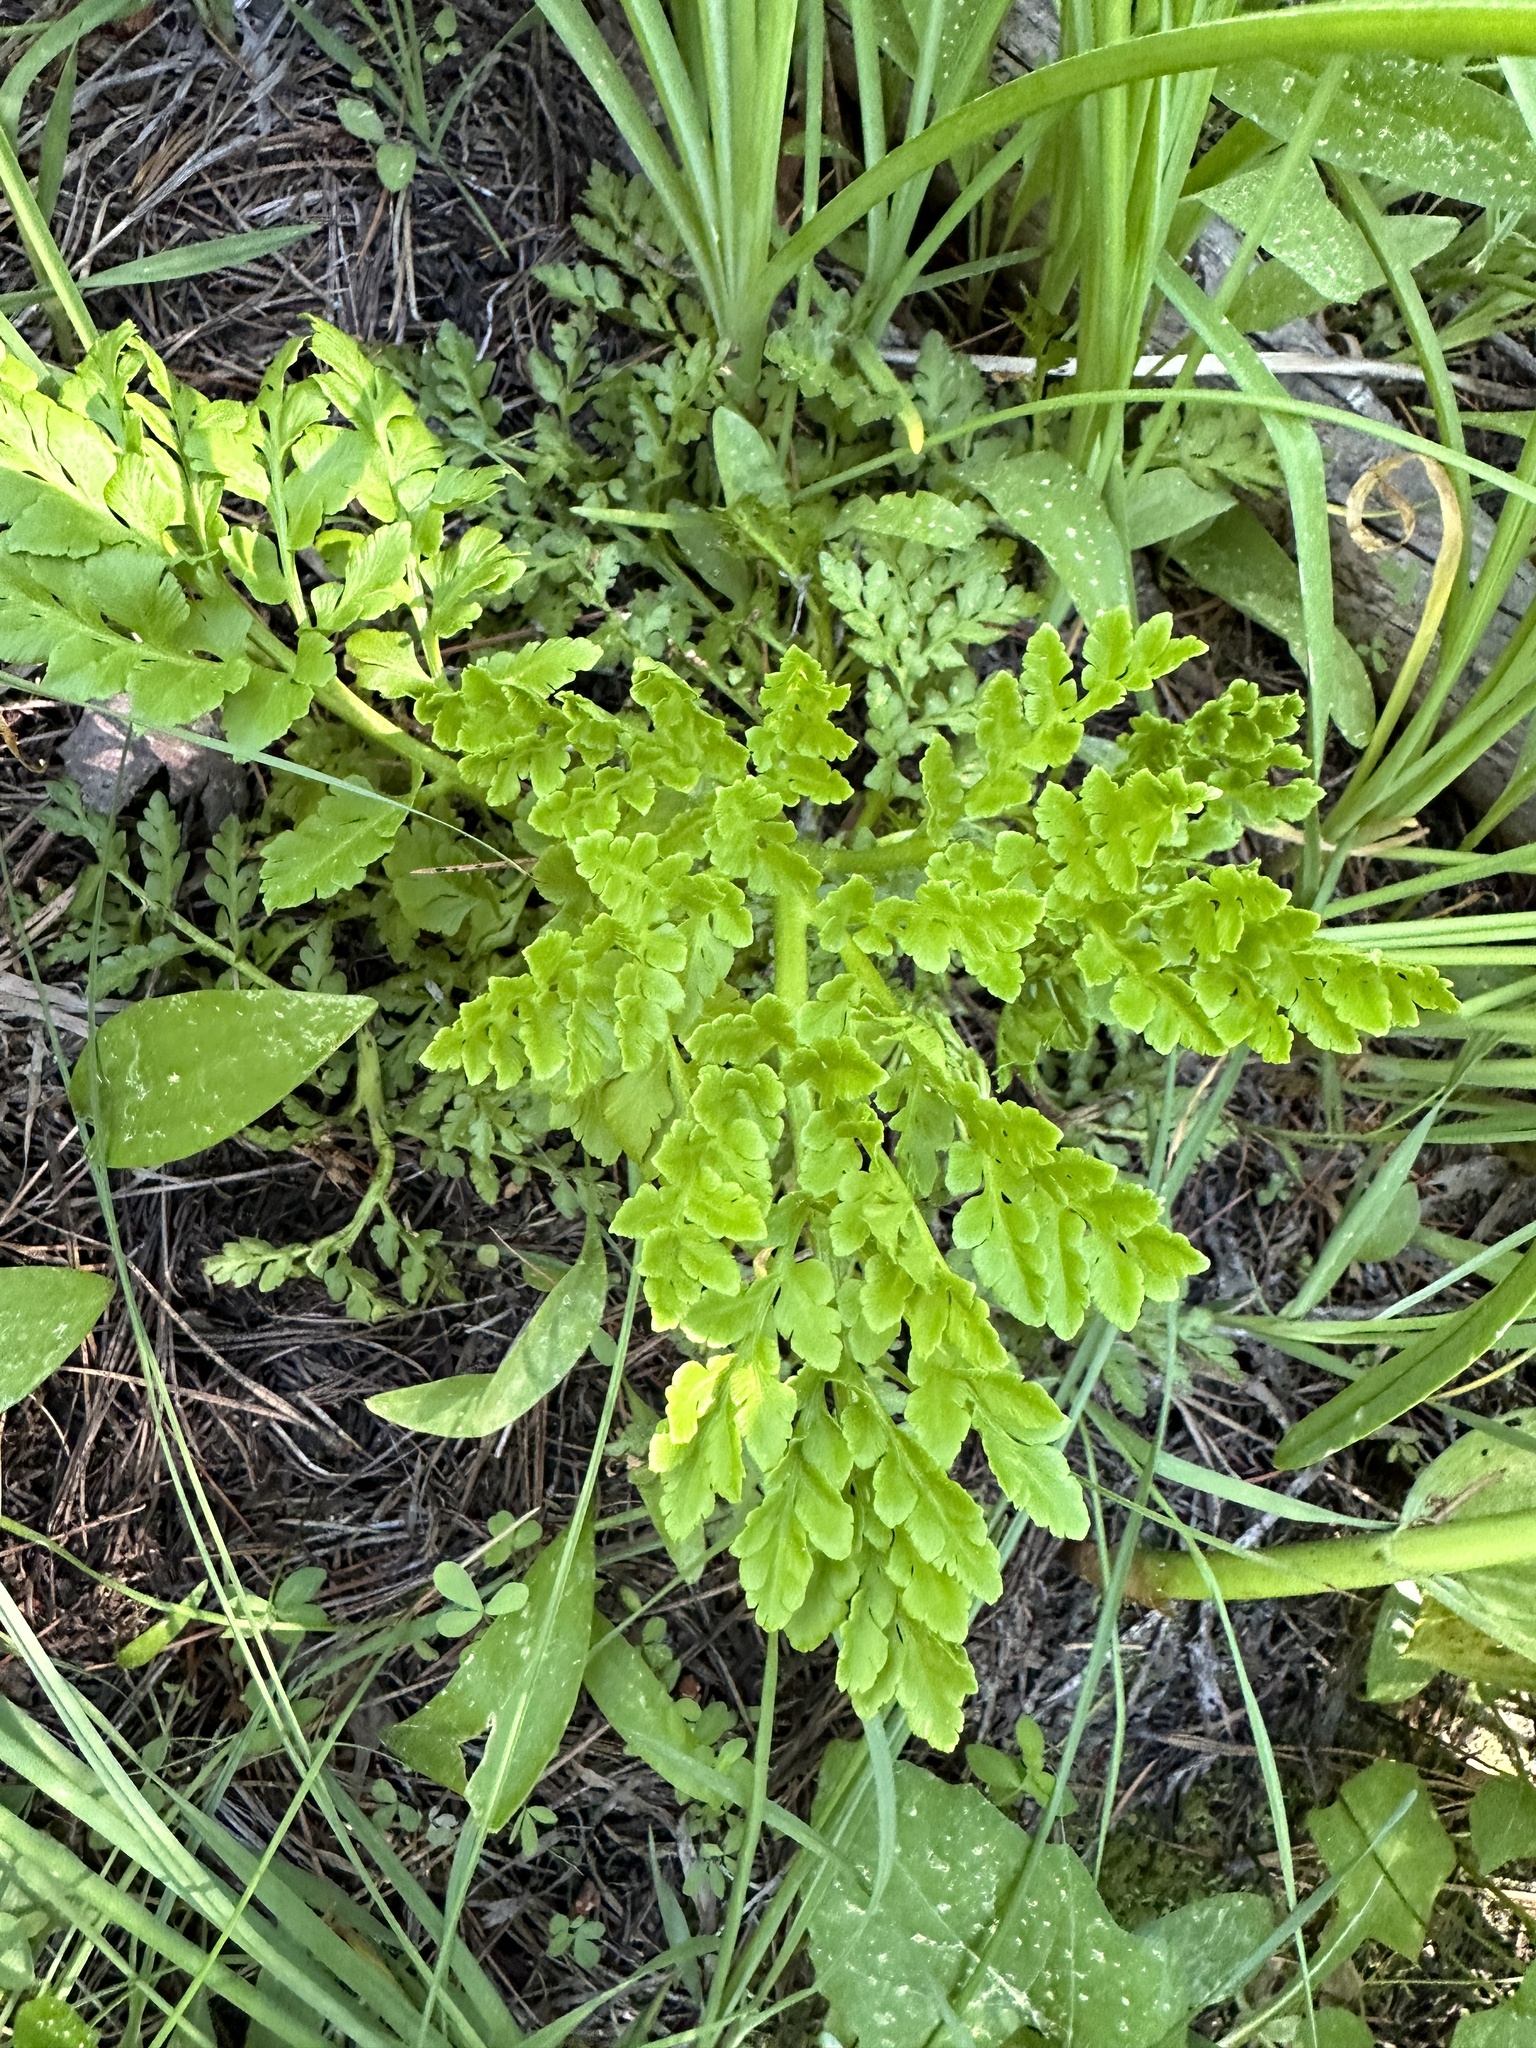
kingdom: Plantae
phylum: Tracheophyta
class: Polypodiopsida
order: Ophioglossales
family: Ophioglossaceae
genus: Sceptridium
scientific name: Sceptridium multifidum
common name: Leathery grape fern
